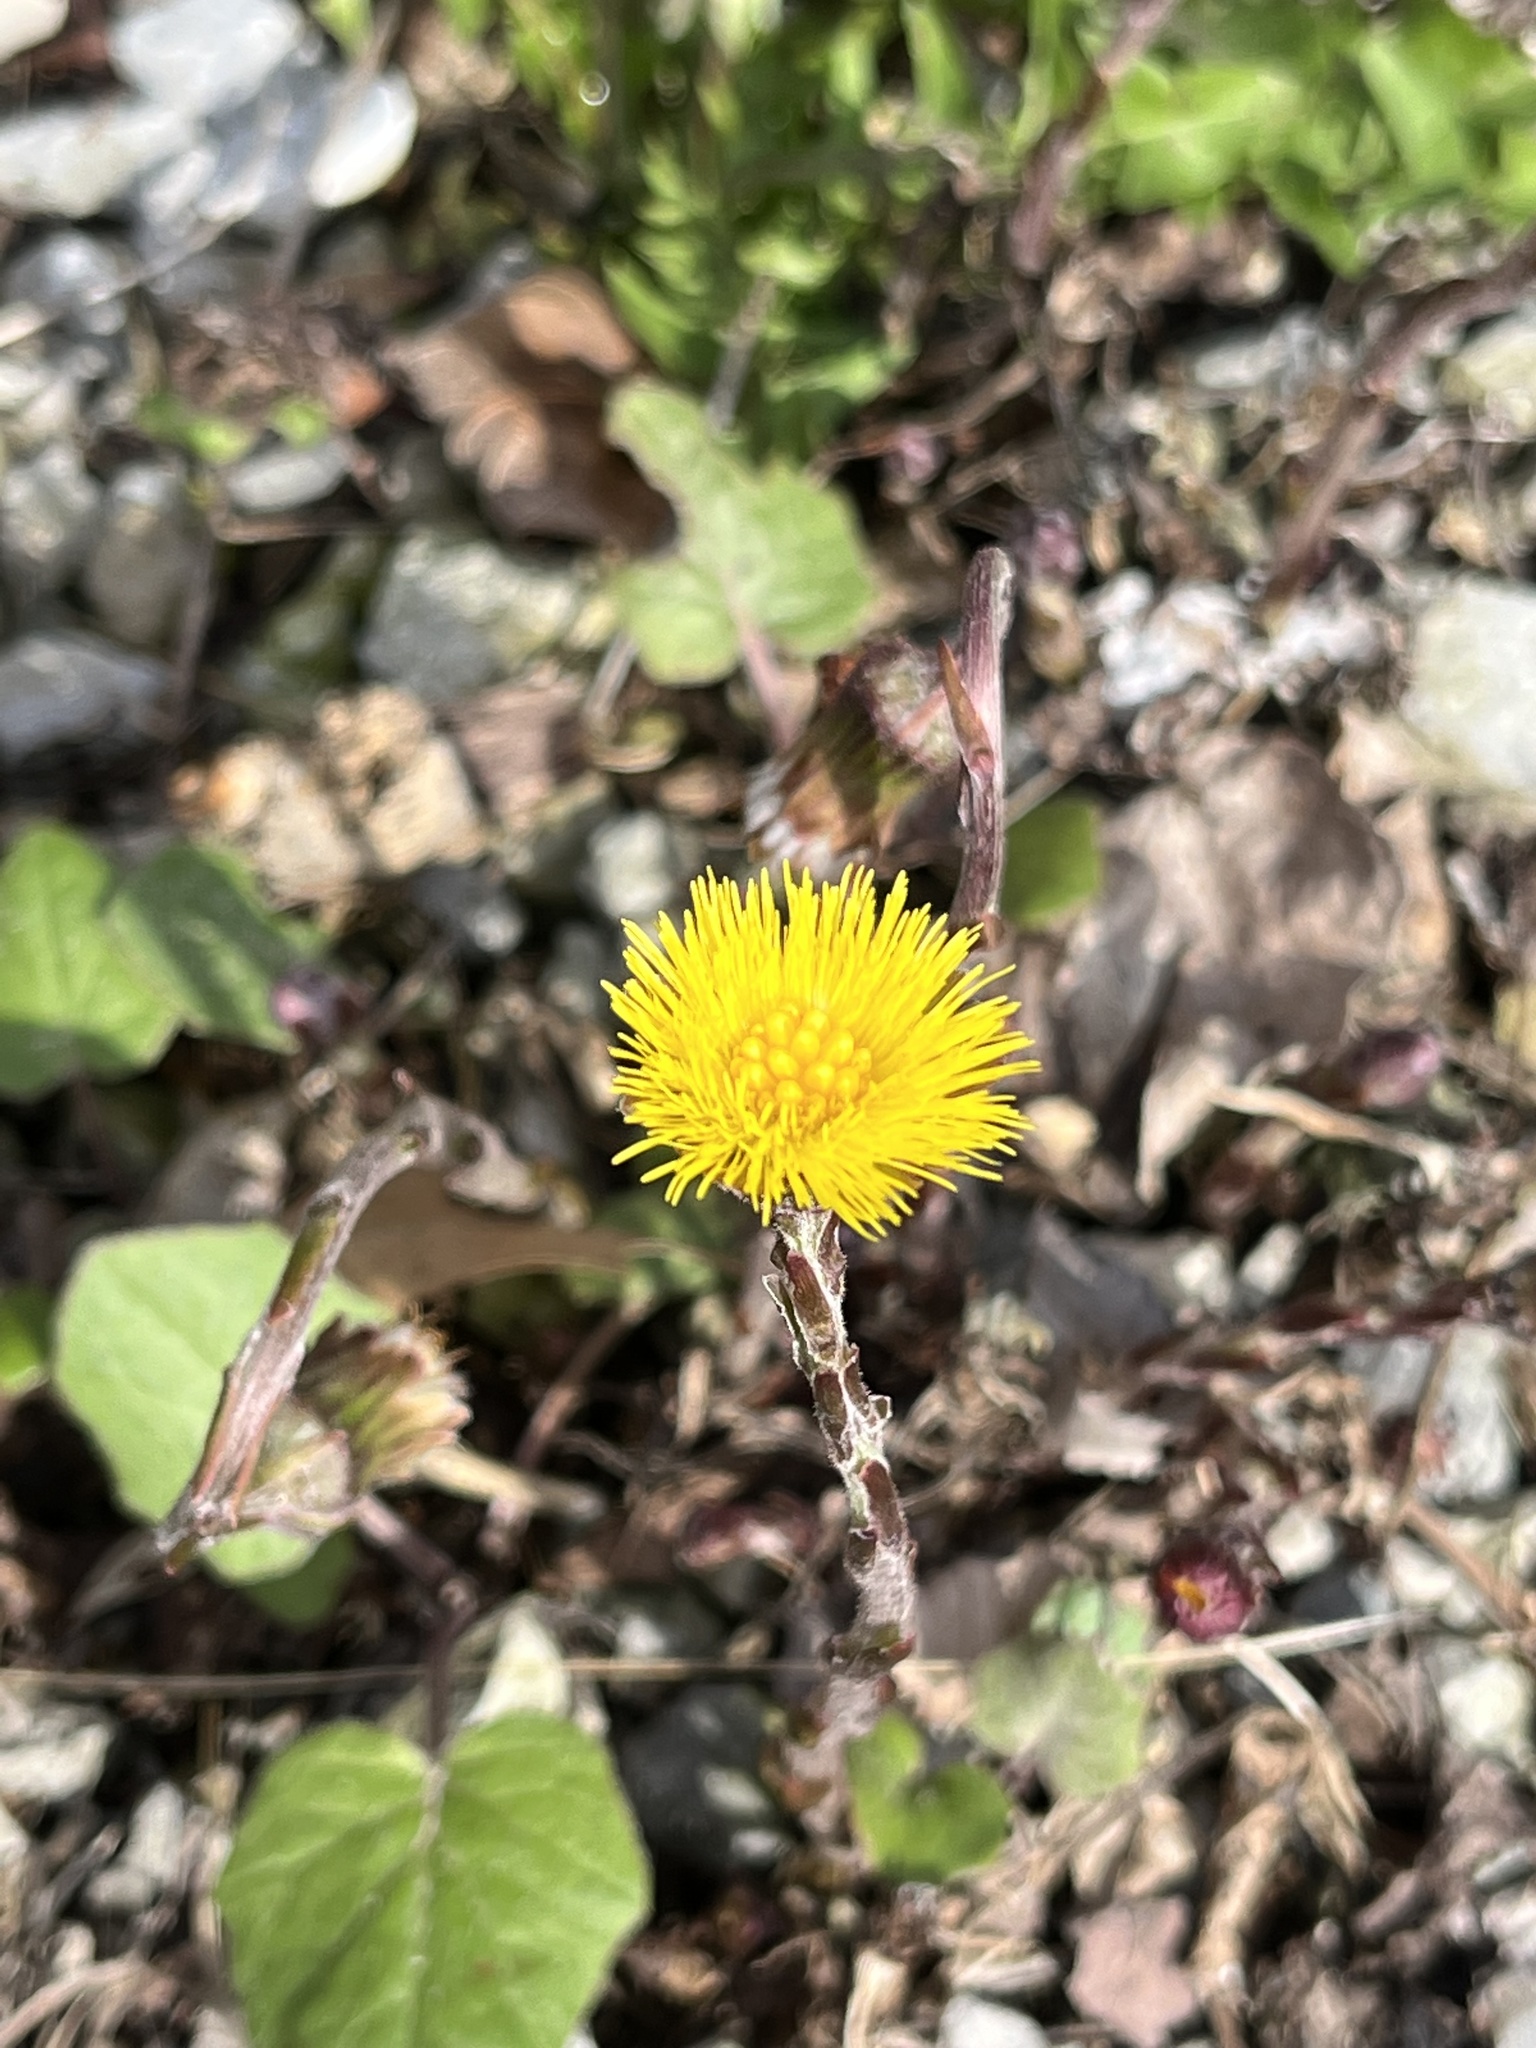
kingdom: Plantae
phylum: Tracheophyta
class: Magnoliopsida
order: Asterales
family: Asteraceae
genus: Tussilago
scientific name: Tussilago farfara
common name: Coltsfoot
